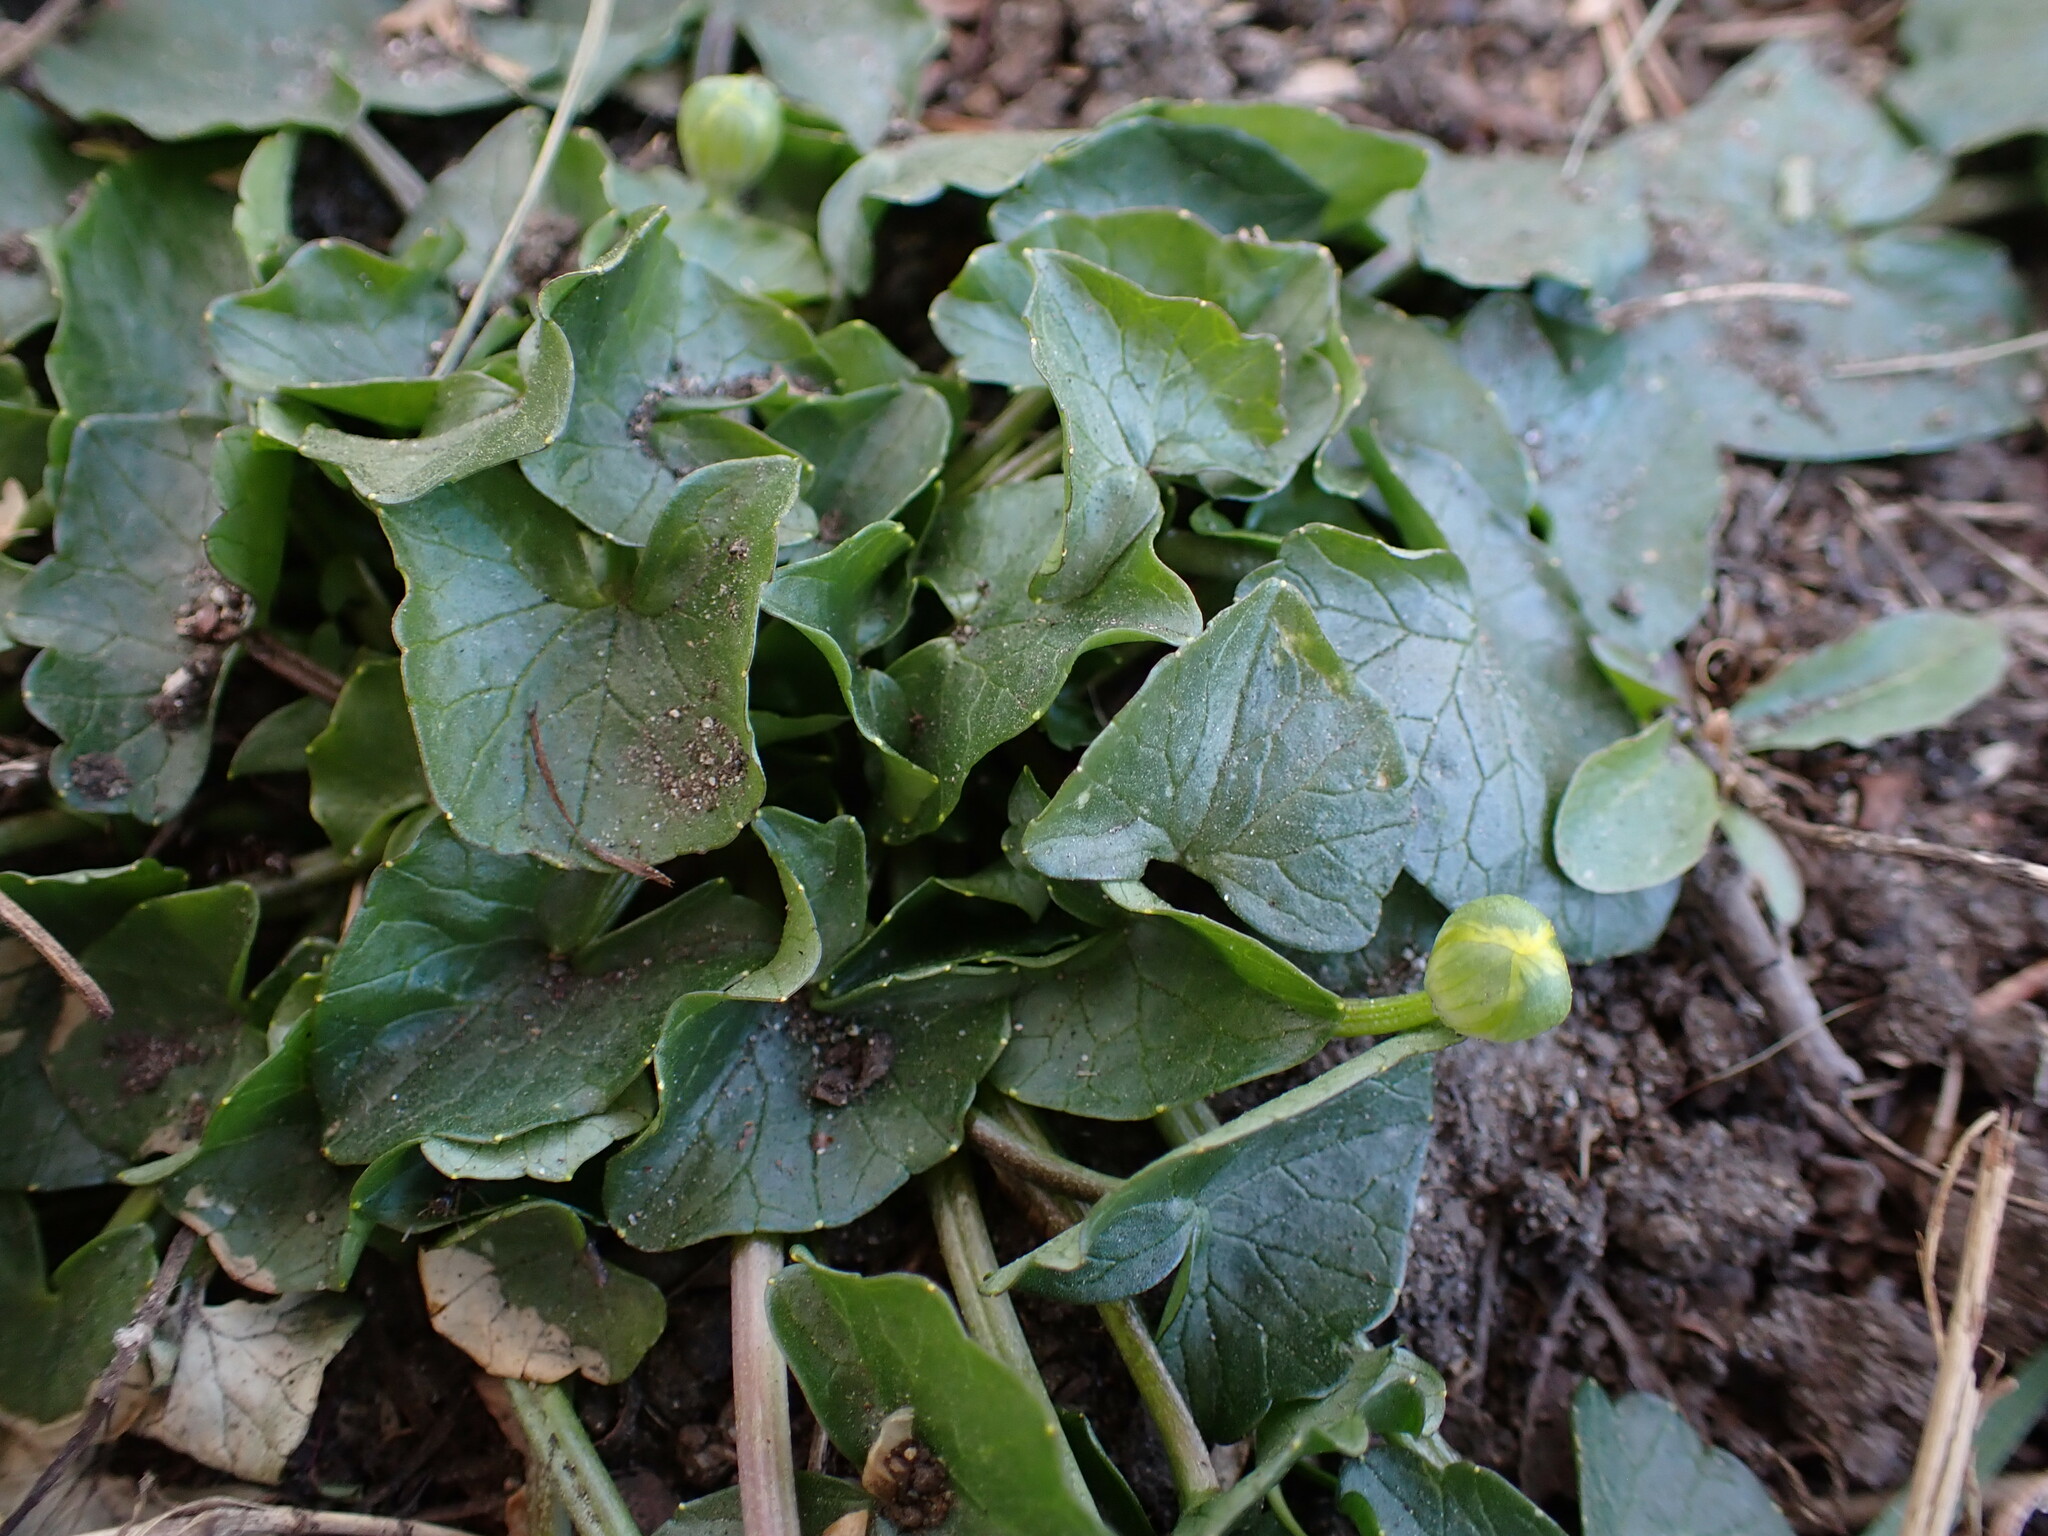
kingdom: Plantae
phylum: Tracheophyta
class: Magnoliopsida
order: Ranunculales
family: Ranunculaceae
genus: Ficaria
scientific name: Ficaria verna
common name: Lesser celandine
